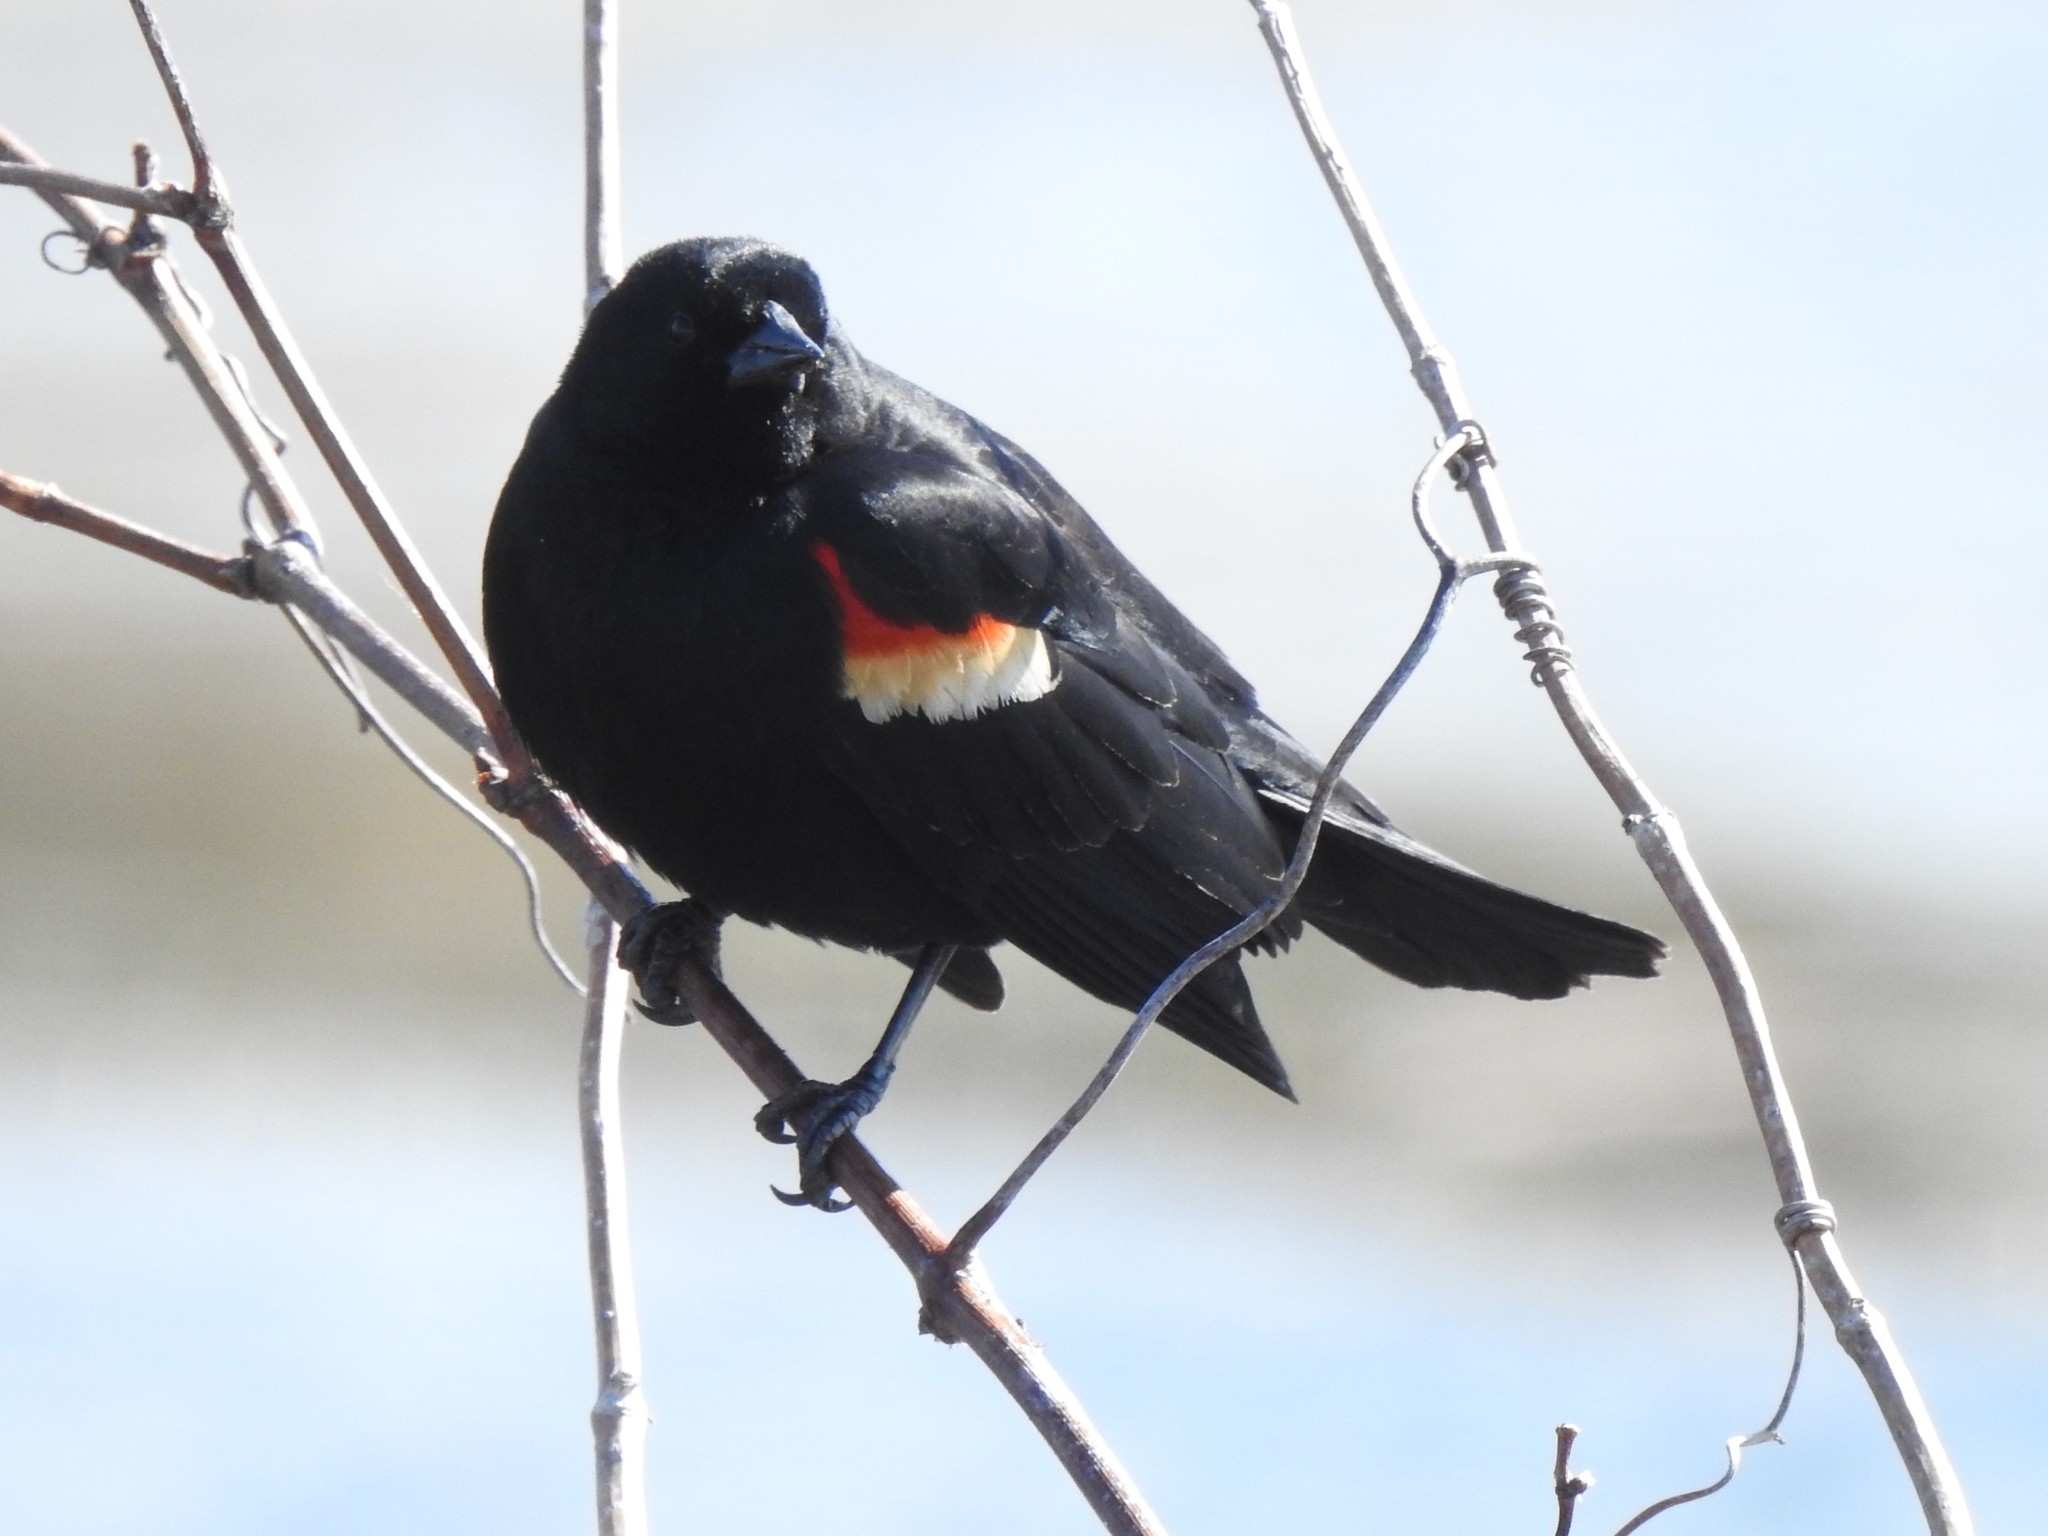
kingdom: Animalia
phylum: Chordata
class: Aves
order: Passeriformes
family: Icteridae
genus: Agelaius
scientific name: Agelaius phoeniceus
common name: Red-winged blackbird
